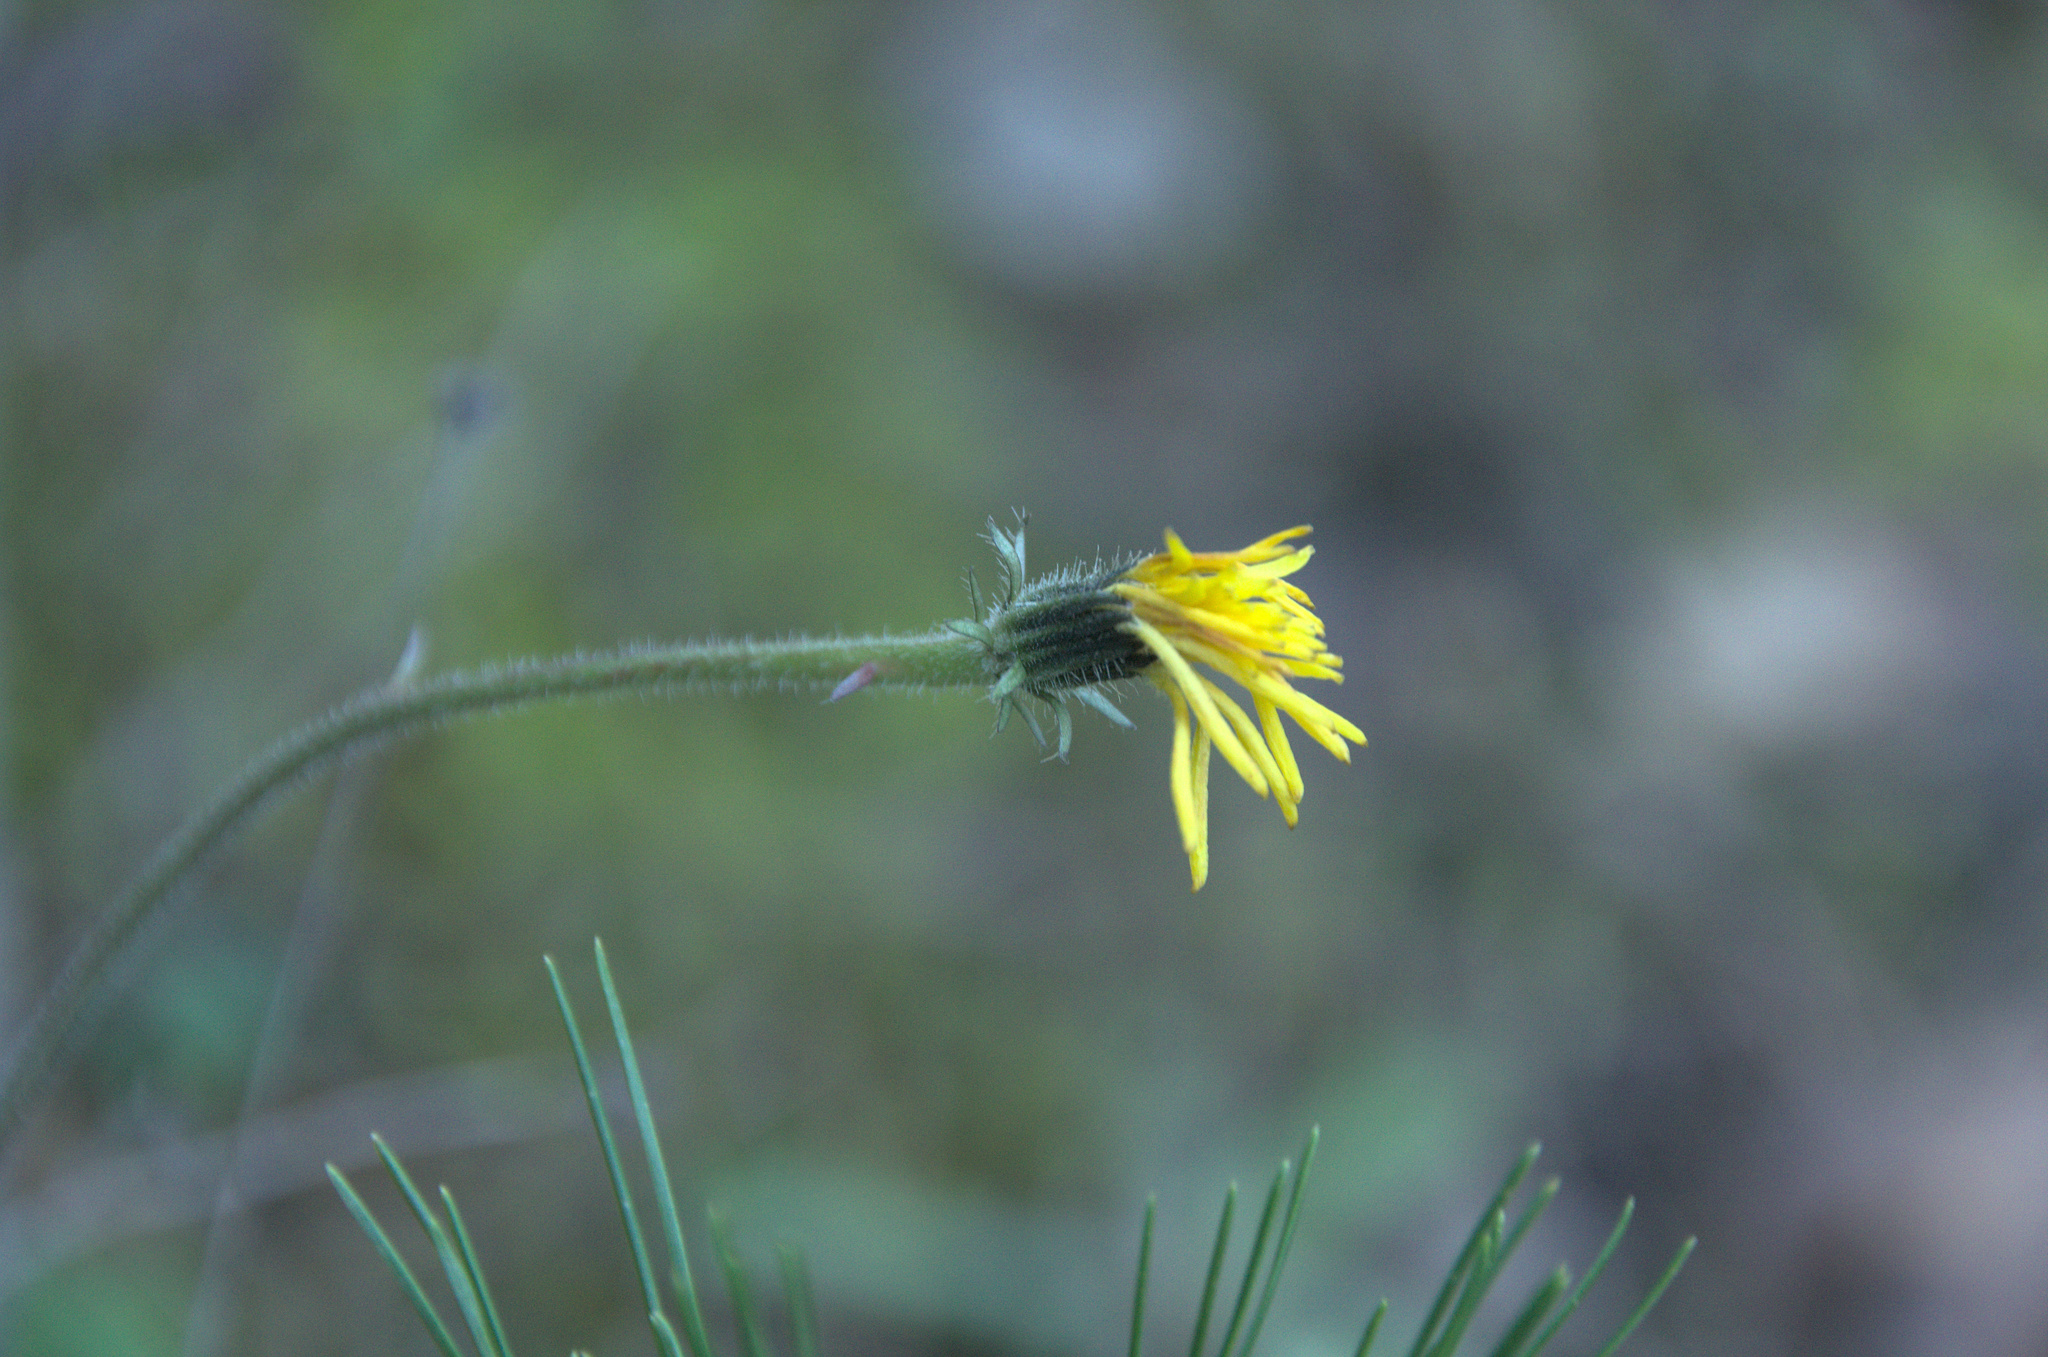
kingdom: Plantae
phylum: Tracheophyta
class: Magnoliopsida
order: Asterales
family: Asteraceae
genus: Picris
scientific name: Picris hieracioides
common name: Hawkweed oxtongue
